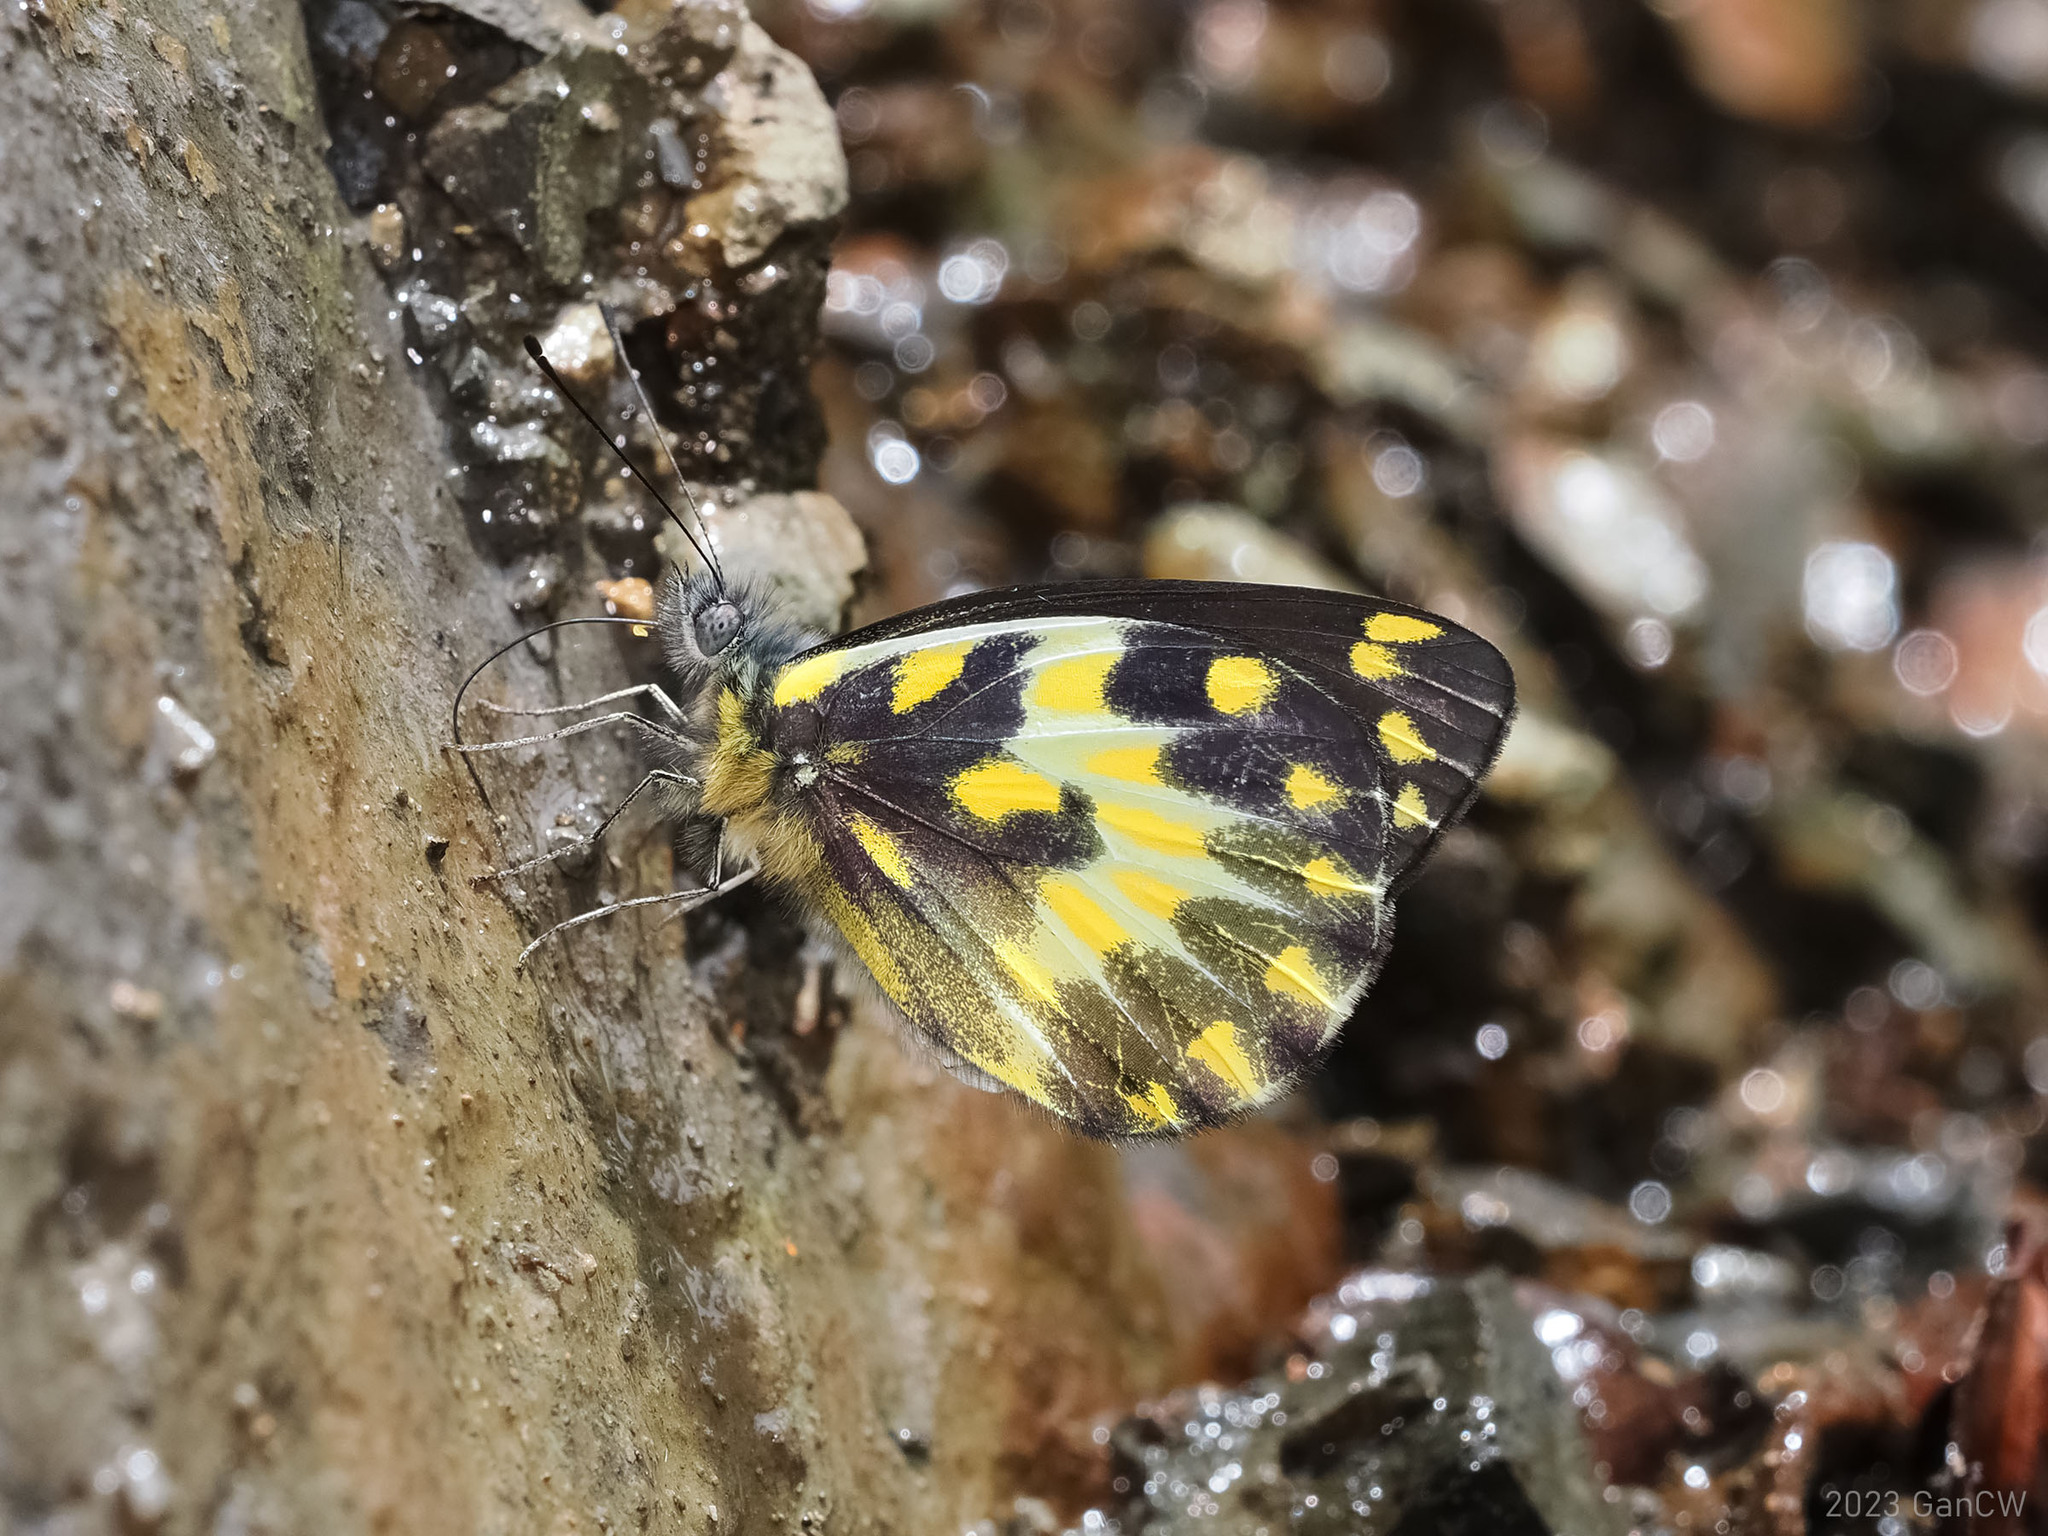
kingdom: Animalia
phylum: Arthropoda
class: Insecta
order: Lepidoptera
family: Pieridae
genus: Delias
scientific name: Delias pheres
